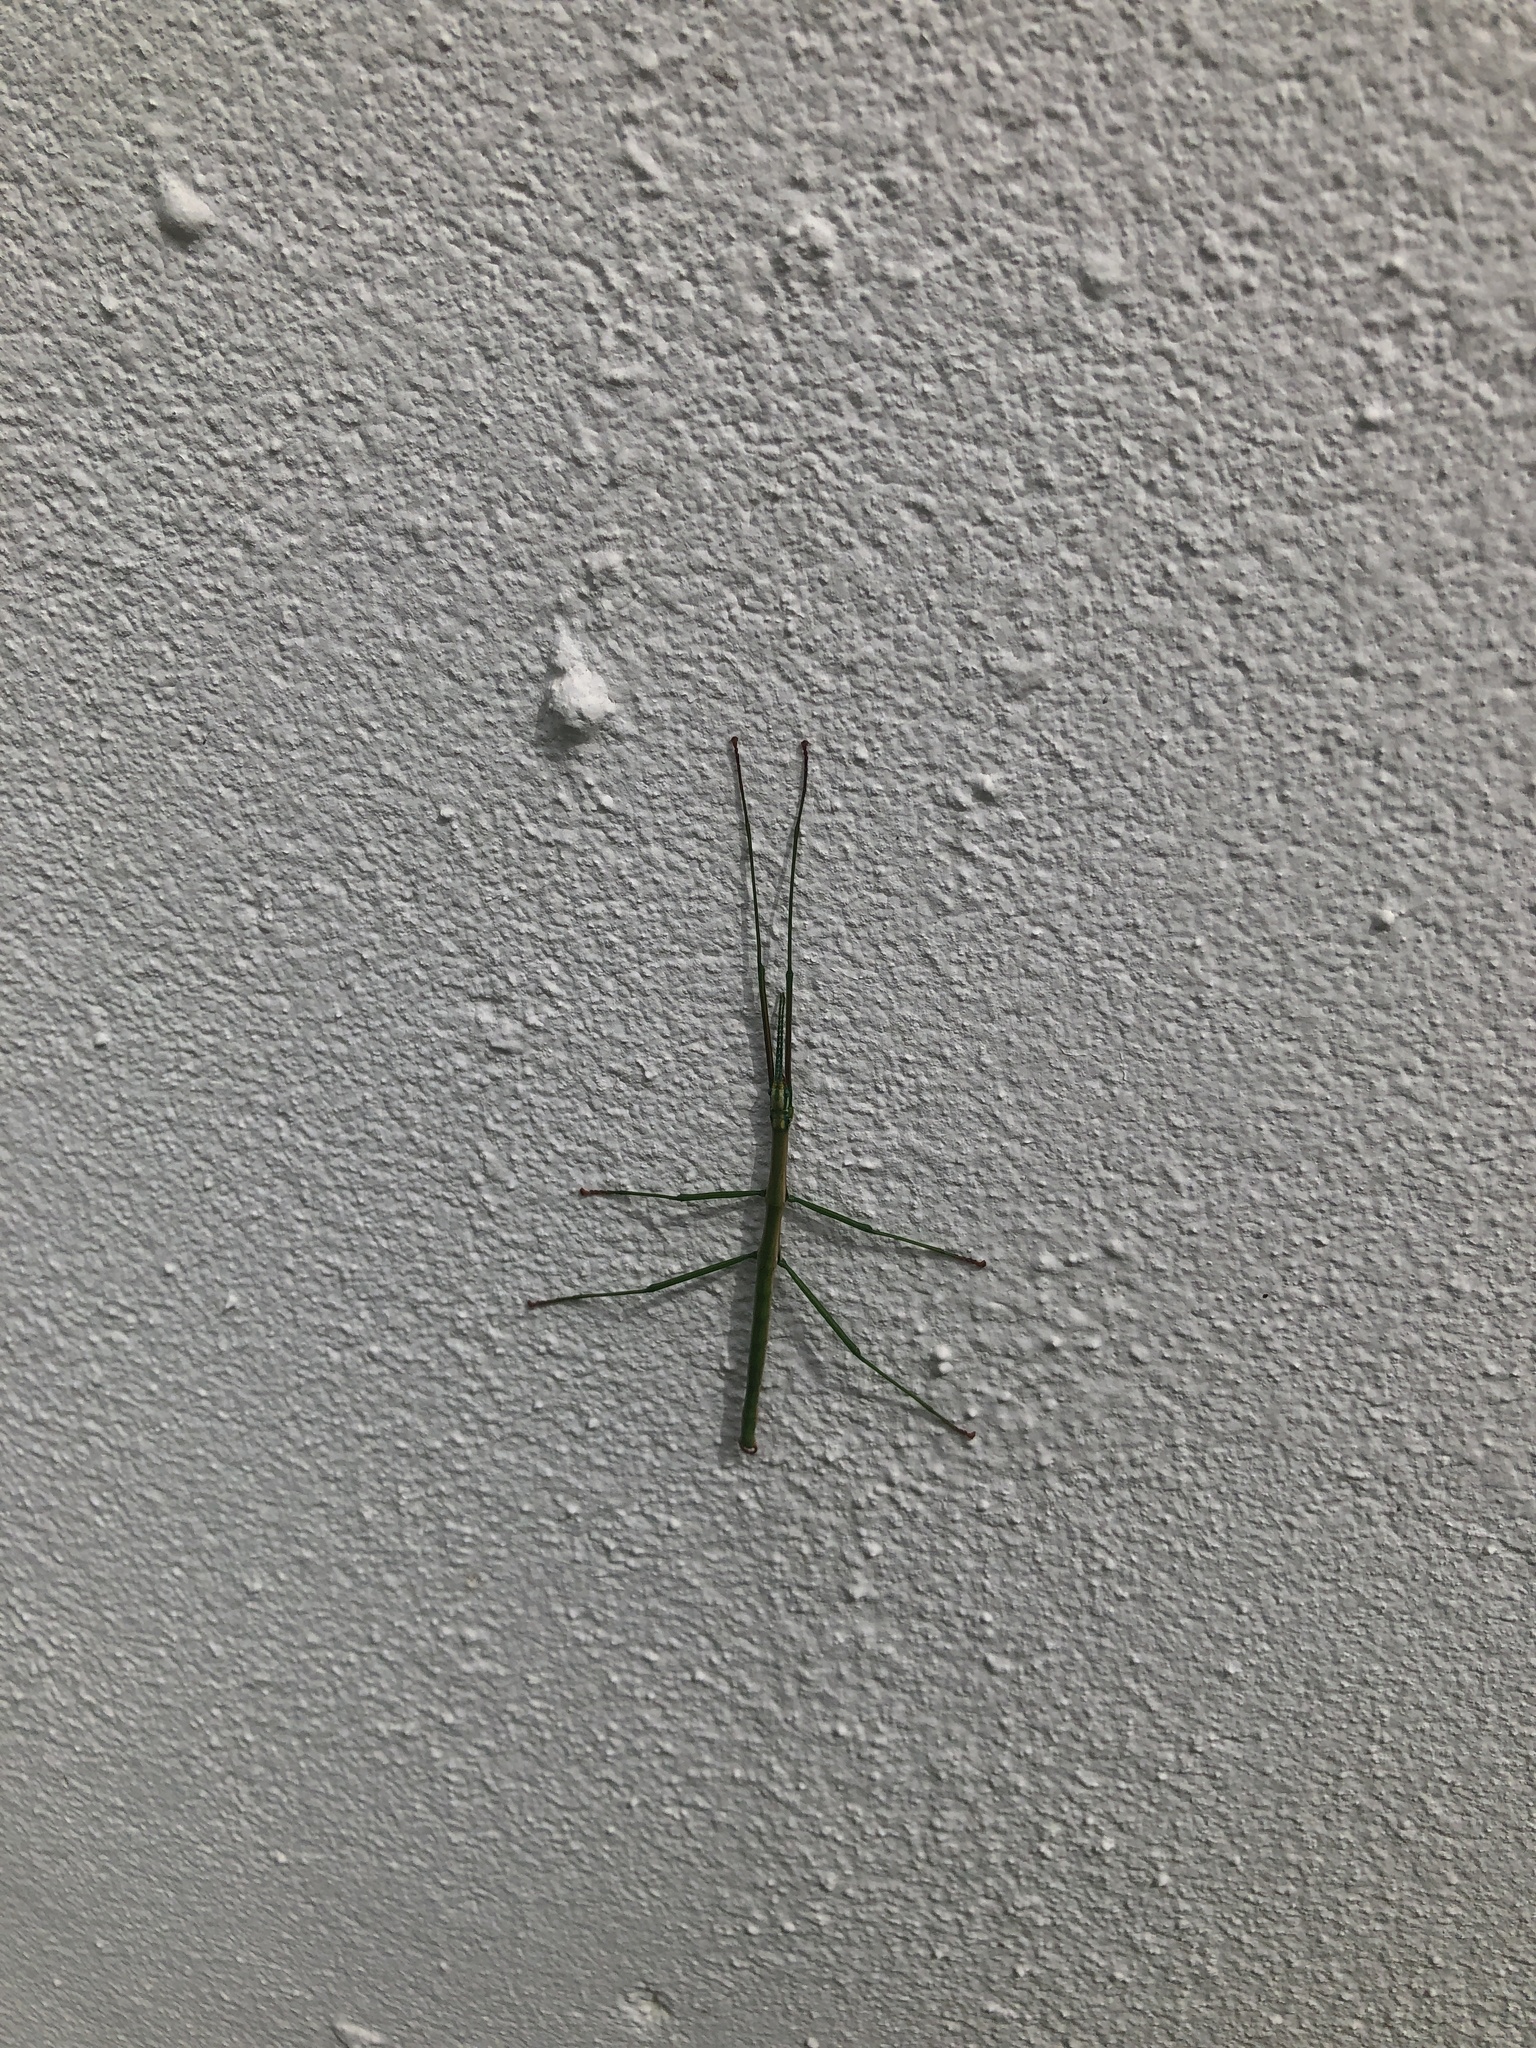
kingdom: Animalia
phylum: Arthropoda
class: Insecta
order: Phasmida
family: Bacillidae
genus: Phalces
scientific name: Phalces brevis
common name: Cape stick insect
